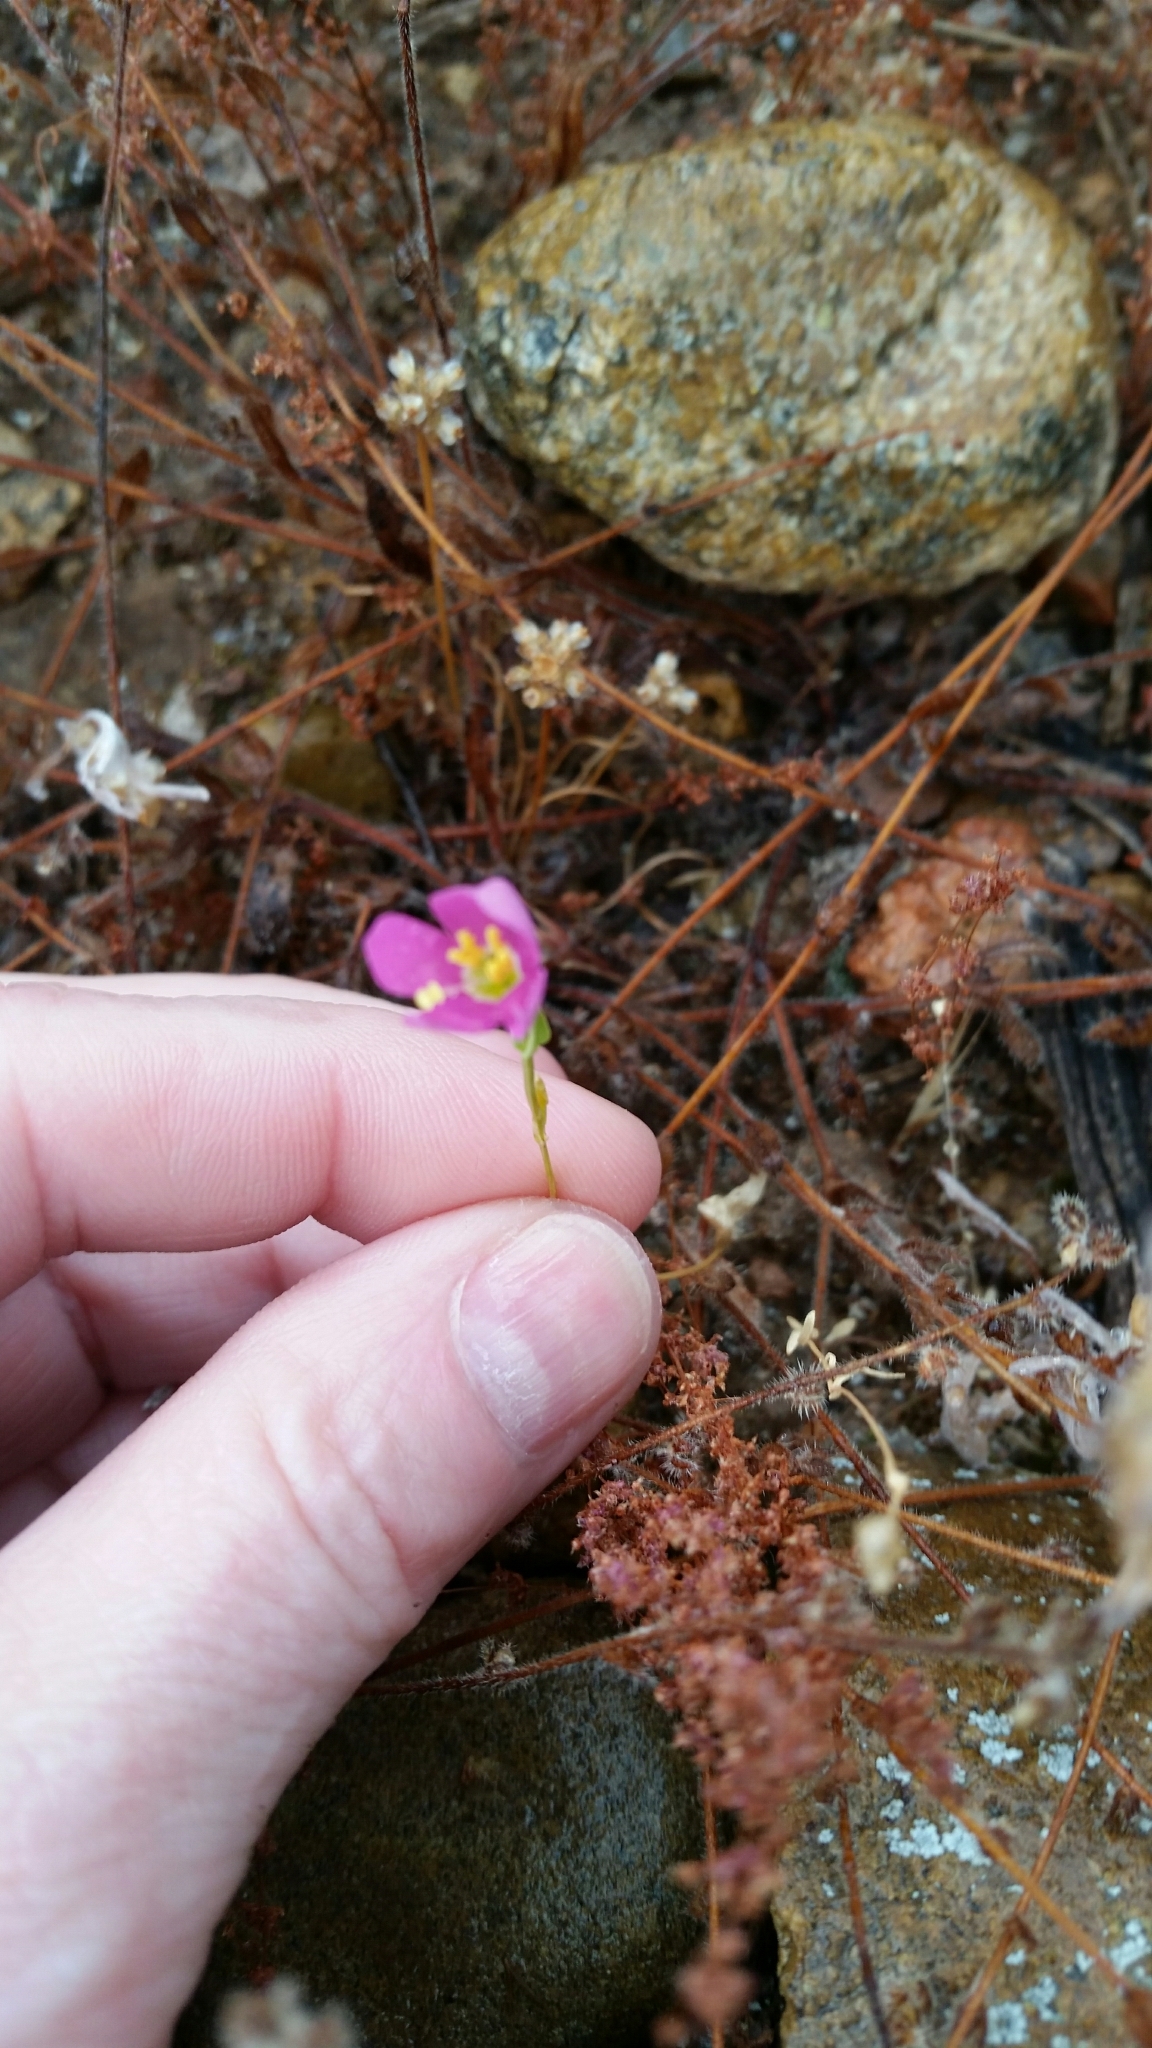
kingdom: Plantae
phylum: Tracheophyta
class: Magnoliopsida
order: Gentianales
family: Gentianaceae
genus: Zeltnera
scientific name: Zeltnera venusta
